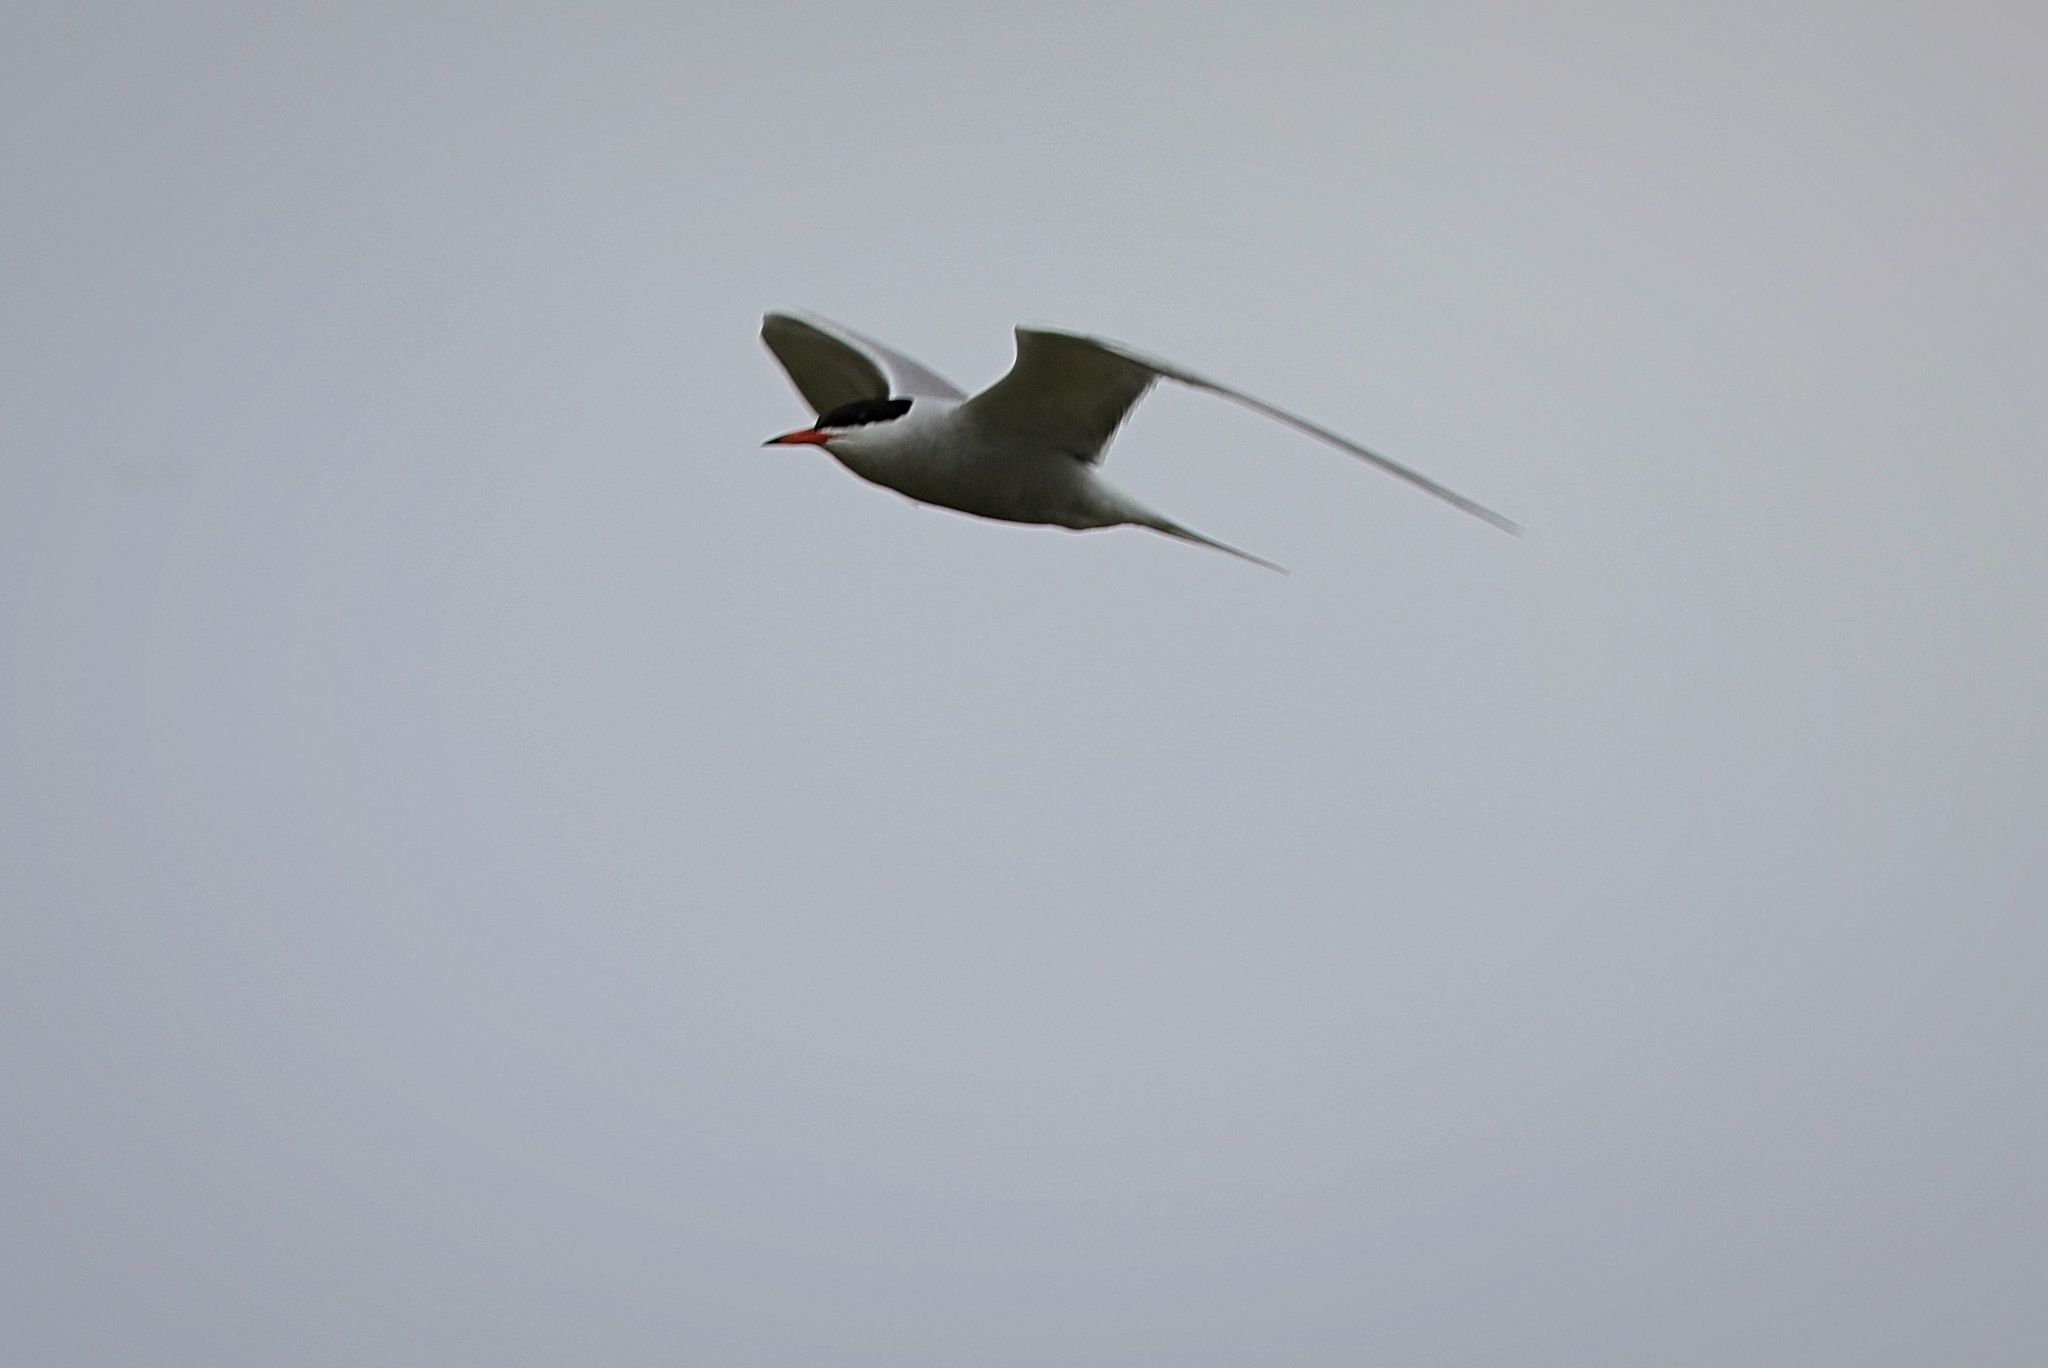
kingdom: Animalia
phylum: Chordata
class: Aves
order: Charadriiformes
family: Laridae
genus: Sterna
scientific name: Sterna hirundo
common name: Common tern
